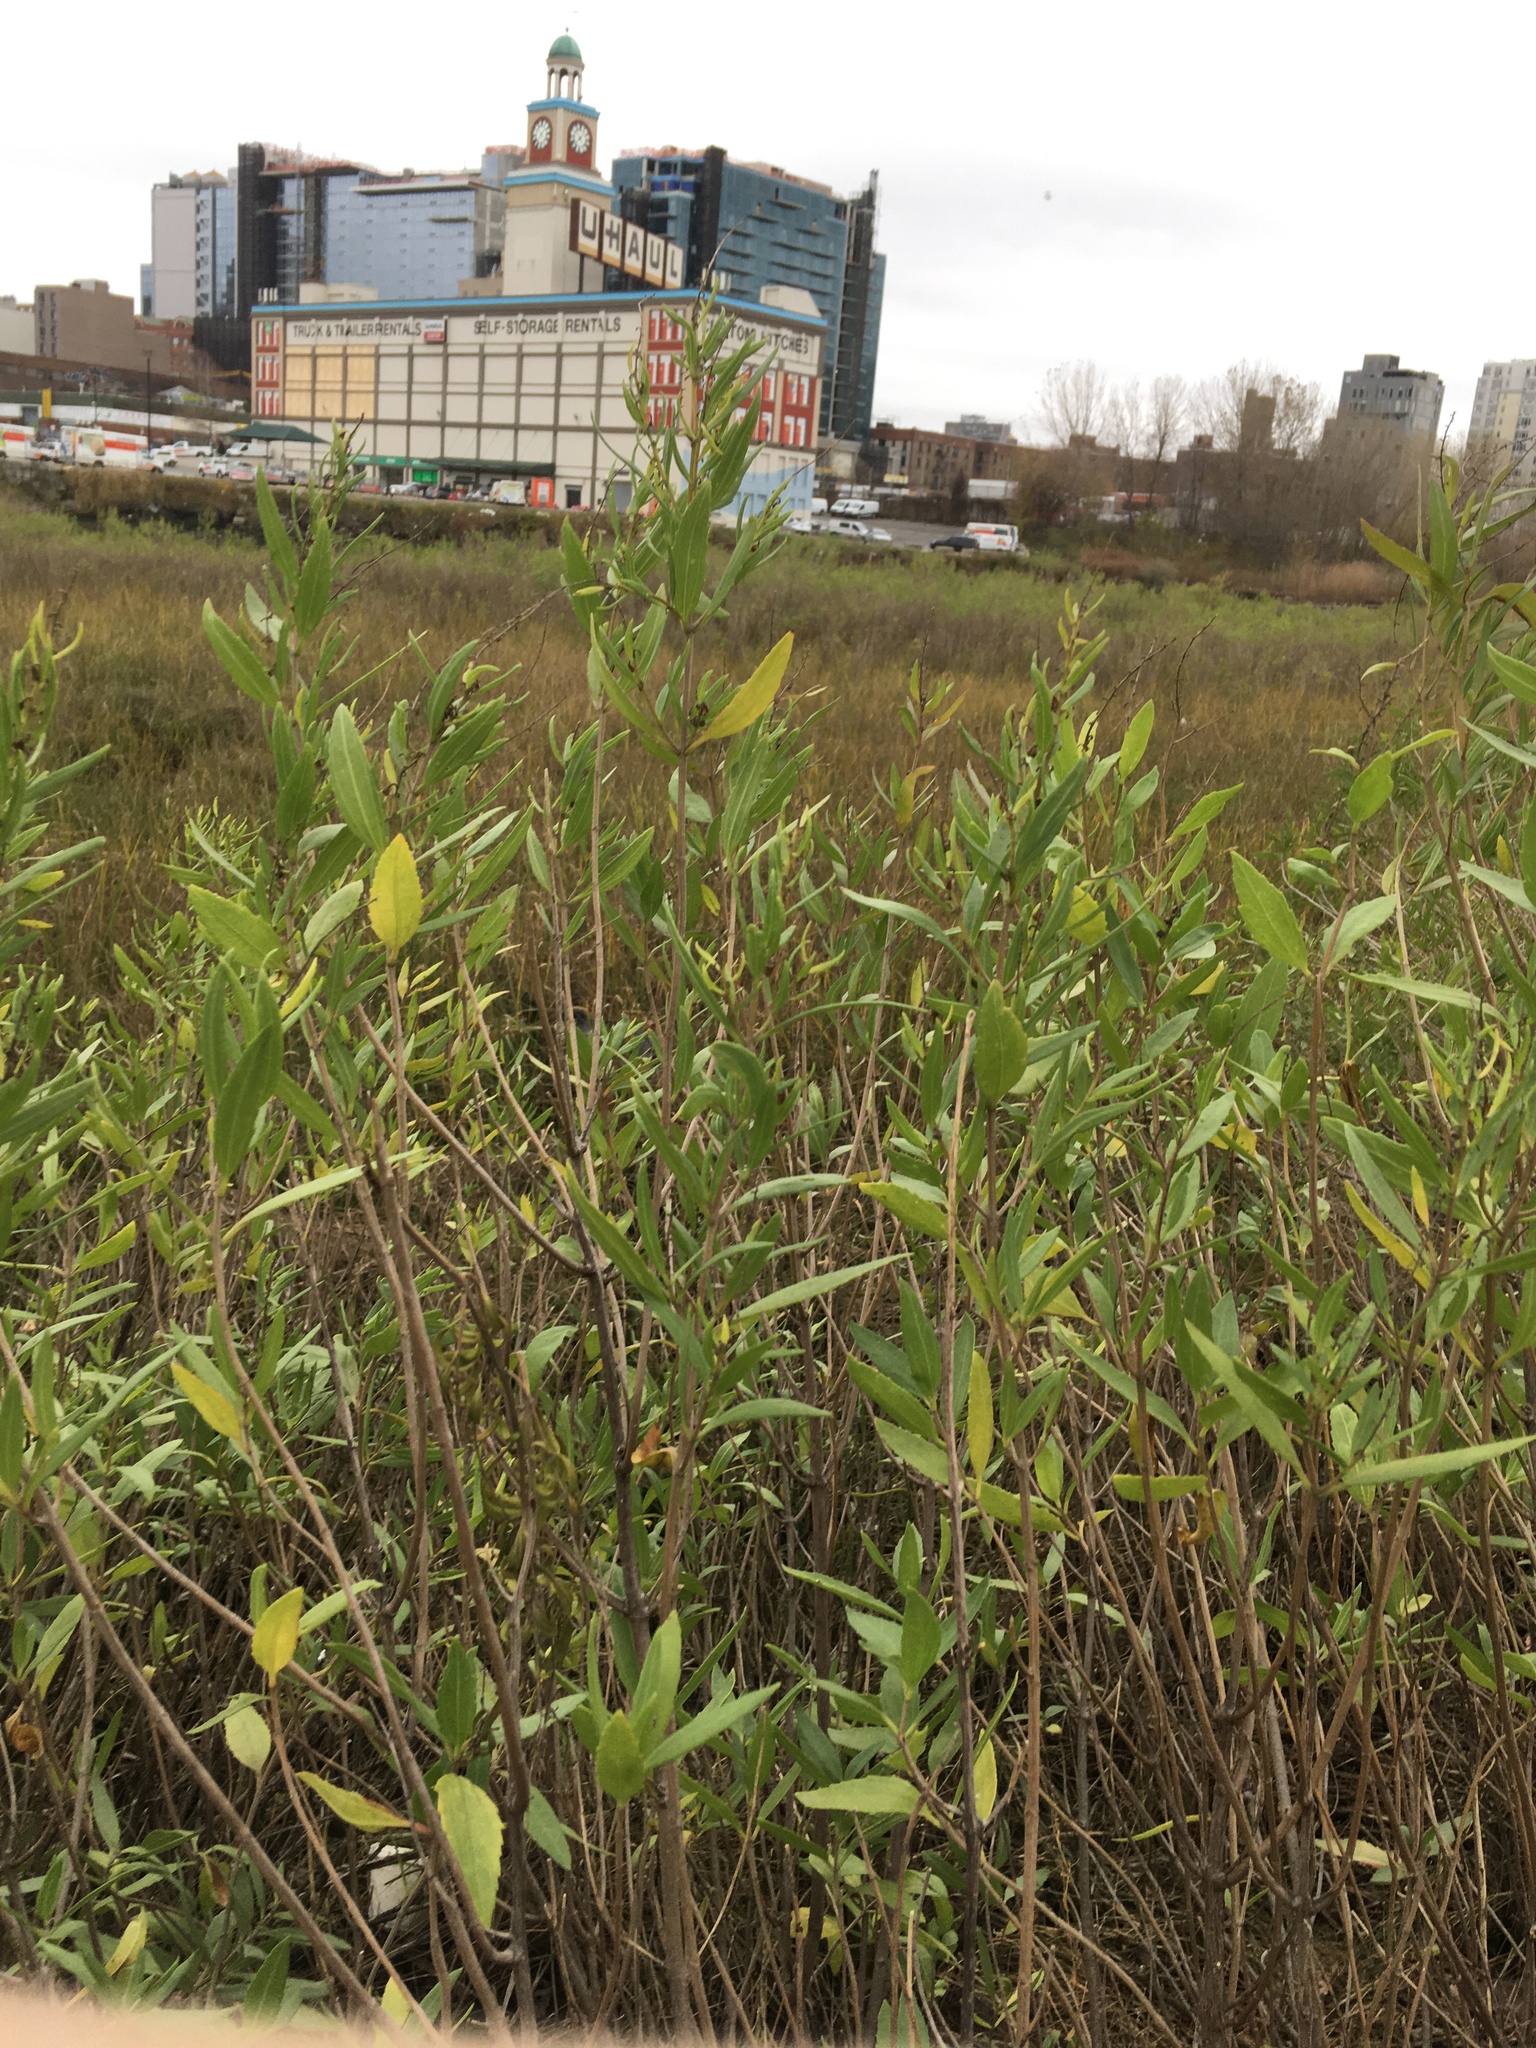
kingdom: Plantae
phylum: Tracheophyta
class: Magnoliopsida
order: Asterales
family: Asteraceae
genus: Iva
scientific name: Iva frutescens
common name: Big-leaved marsh-elder
